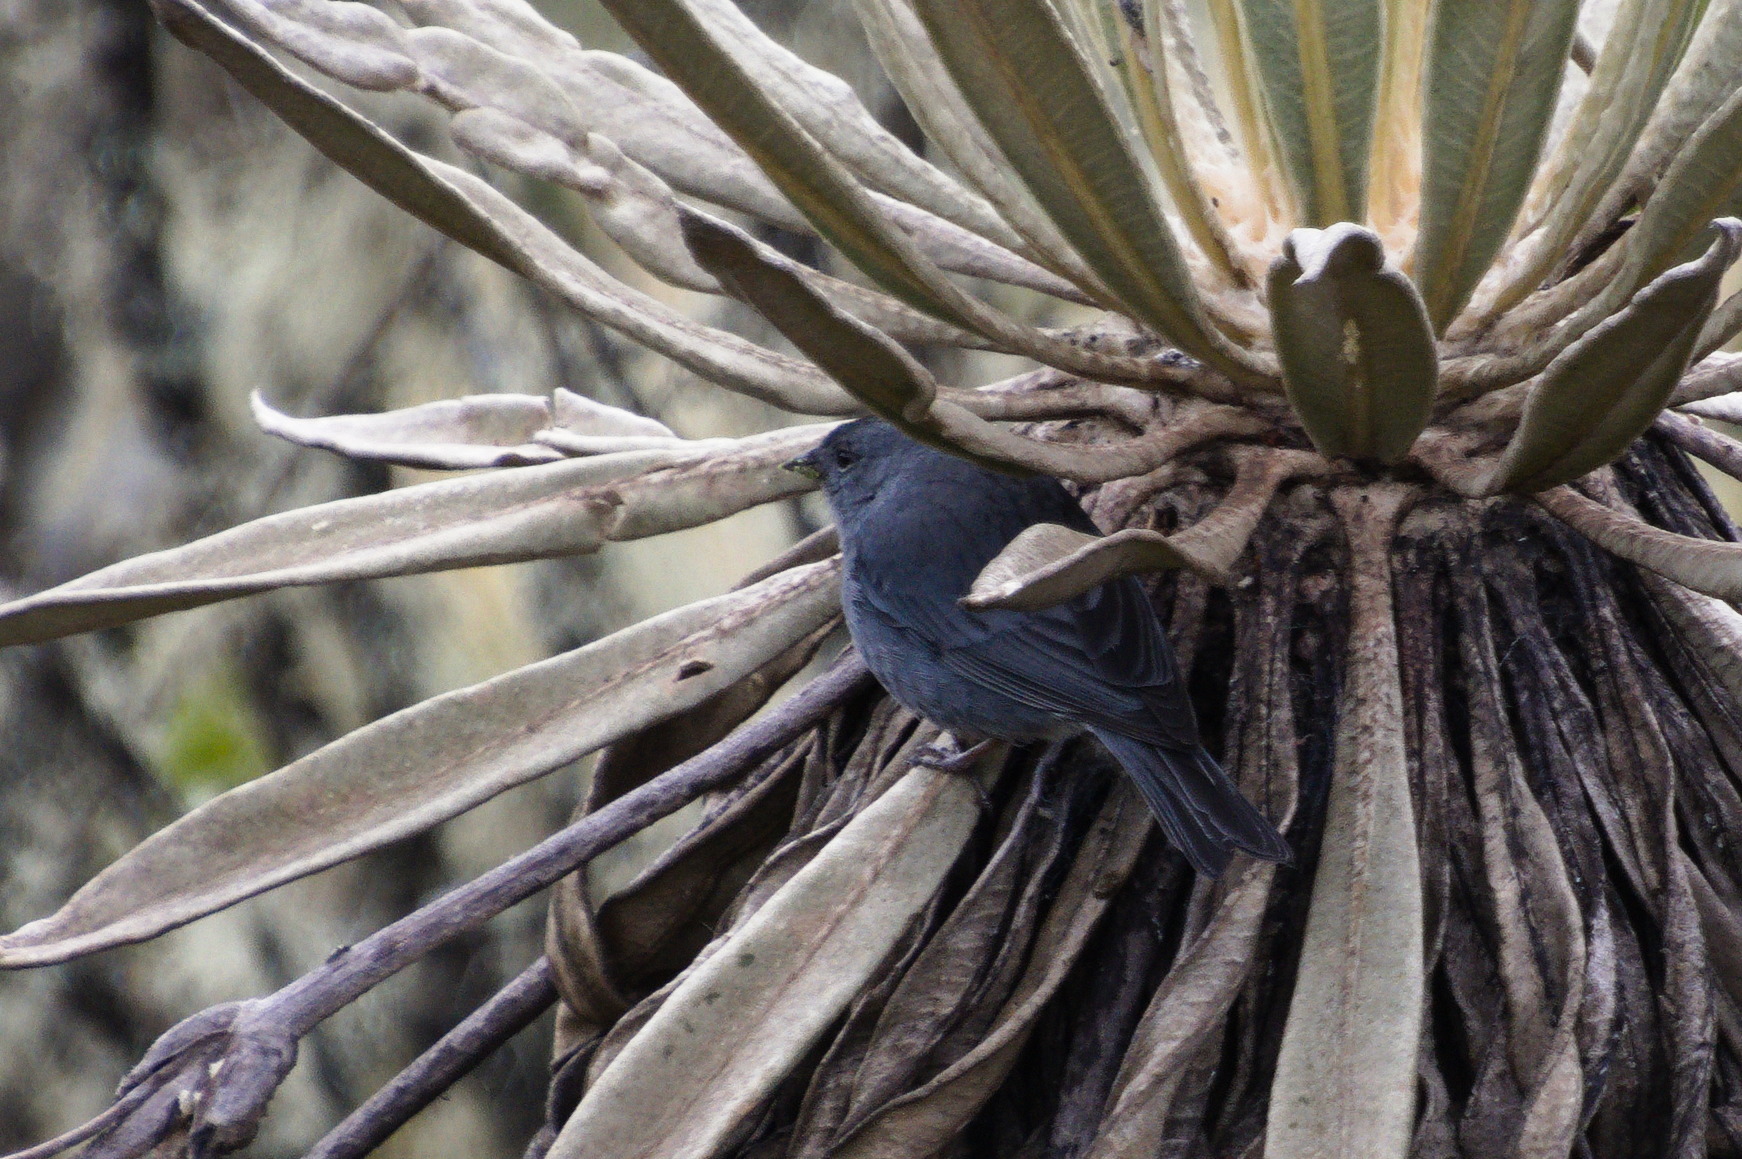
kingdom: Animalia
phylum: Chordata
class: Aves
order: Passeriformes
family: Thraupidae
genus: Geospizopsis
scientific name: Geospizopsis unicolor
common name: Plumbeous sierra-finch
